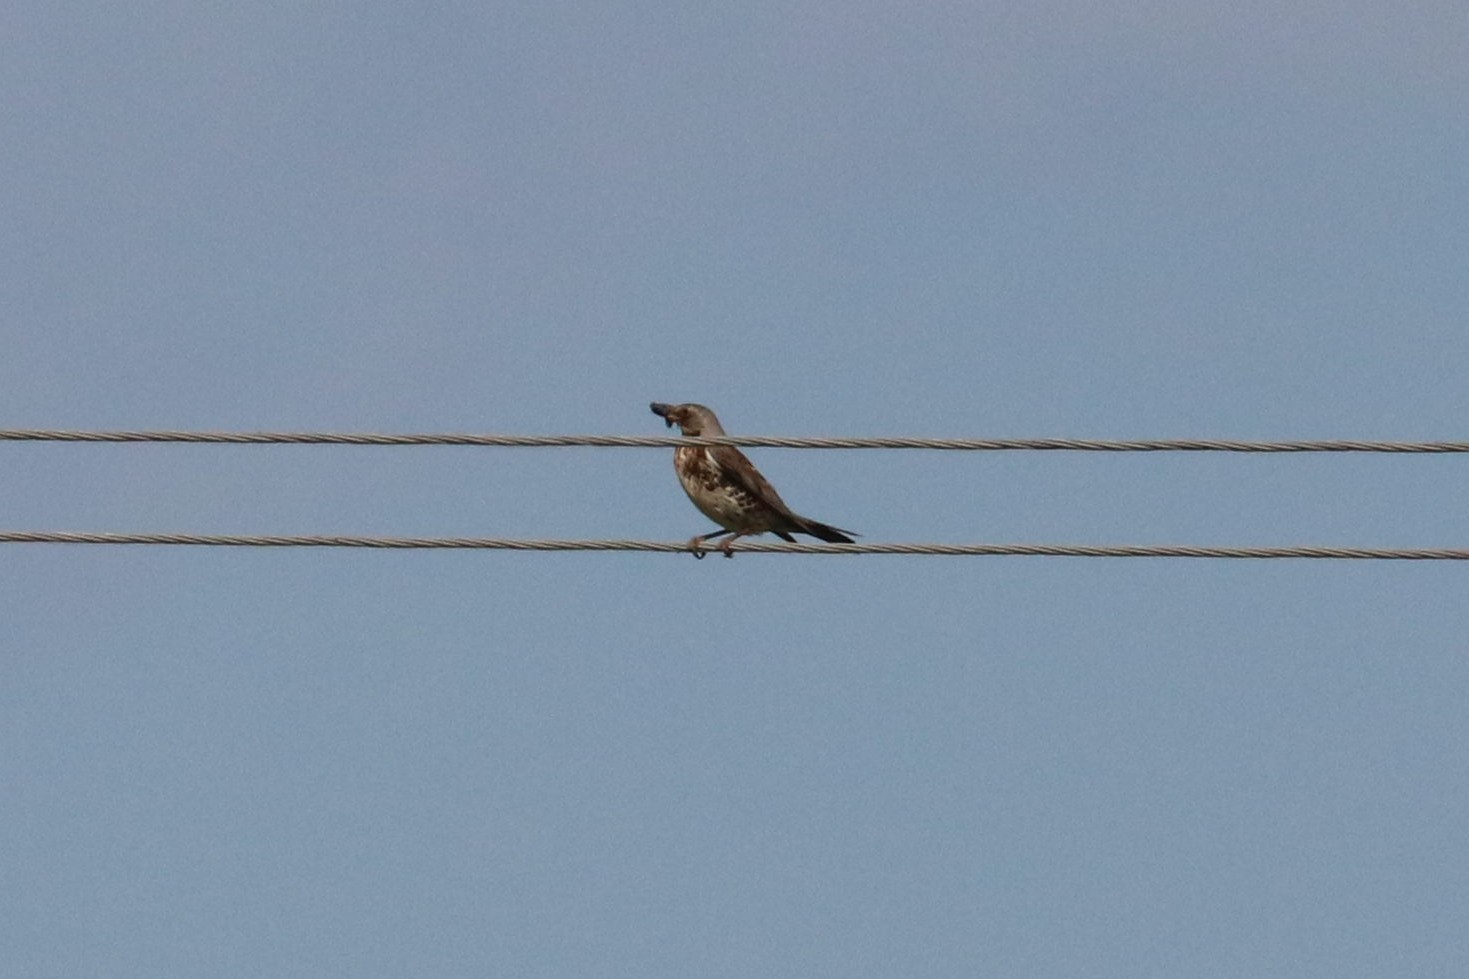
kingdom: Animalia
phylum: Chordata
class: Aves
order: Passeriformes
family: Turdidae
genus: Turdus
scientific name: Turdus pilaris
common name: Fieldfare
